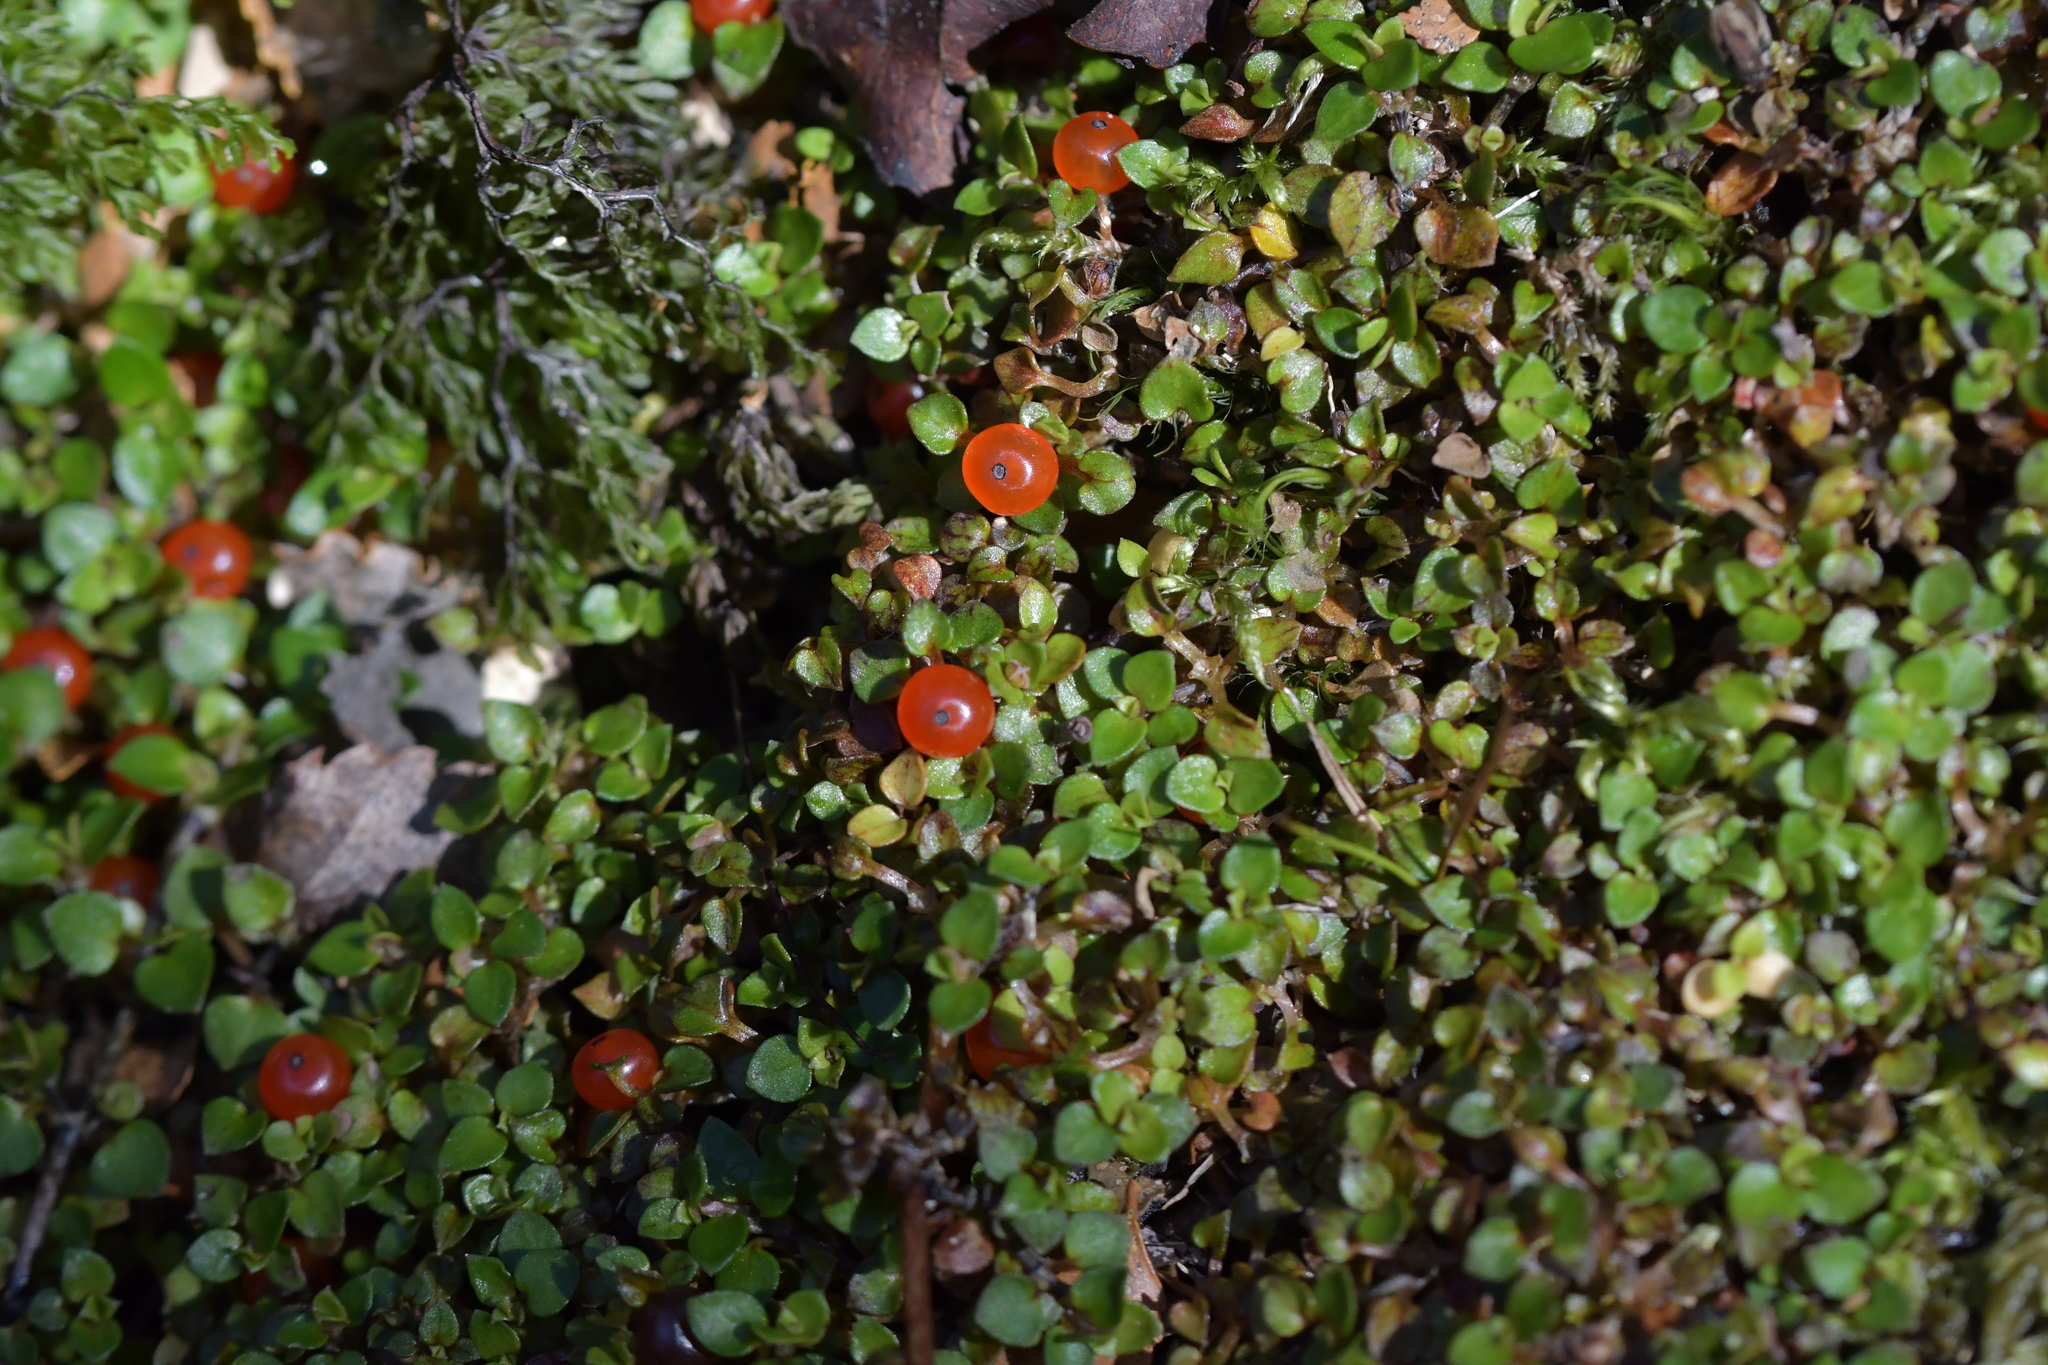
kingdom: Plantae
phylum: Tracheophyta
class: Magnoliopsida
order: Gentianales
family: Rubiaceae
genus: Nertera
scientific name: Nertera granadensis
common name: Beadplant
